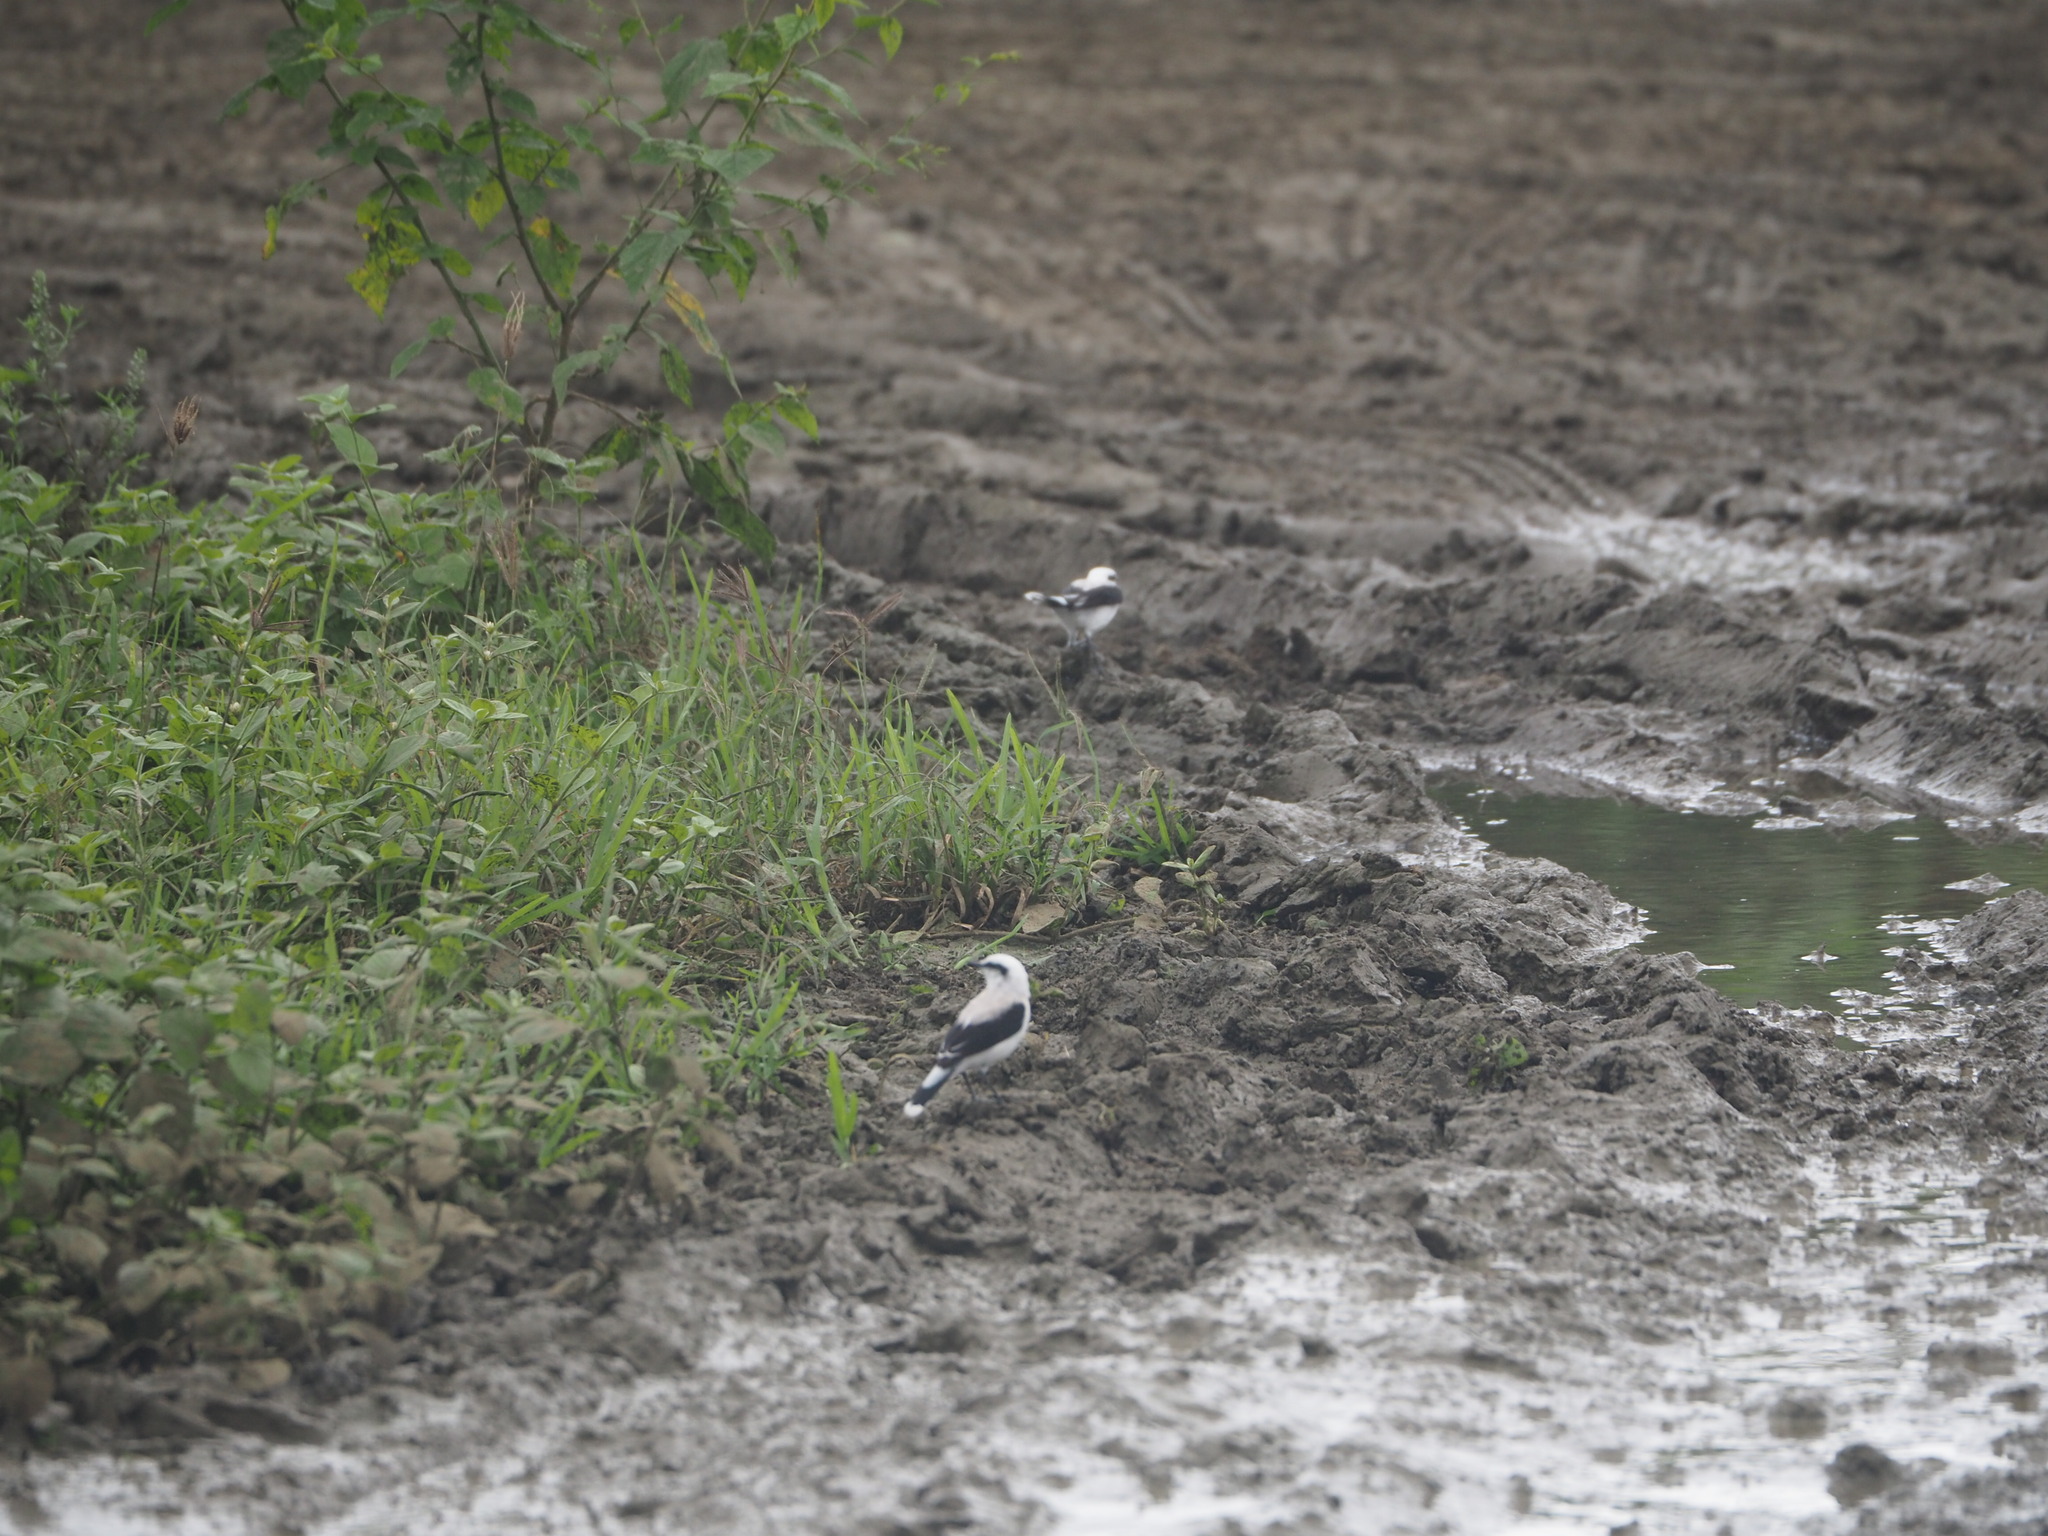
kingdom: Animalia
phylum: Chordata
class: Aves
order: Passeriformes
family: Tyrannidae
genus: Fluvicola
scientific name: Fluvicola nengeta
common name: Masked water tyrant
